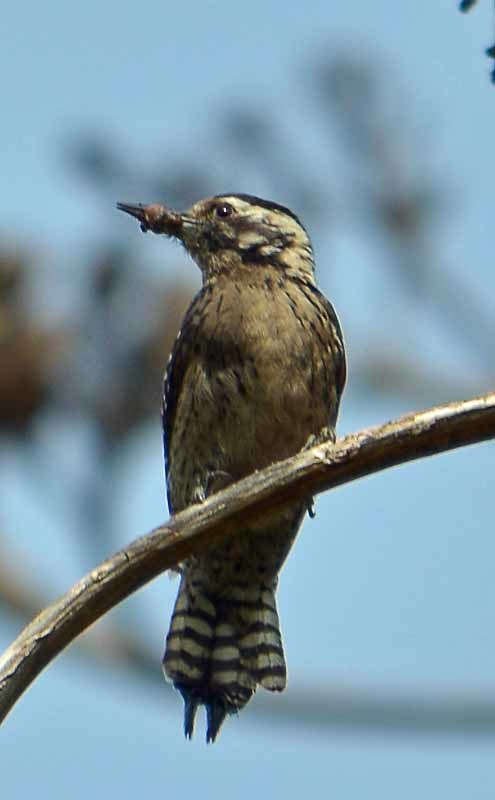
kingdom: Animalia
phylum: Chordata
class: Aves
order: Piciformes
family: Picidae
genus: Dryobates
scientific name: Dryobates scalaris
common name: Ladder-backed woodpecker
